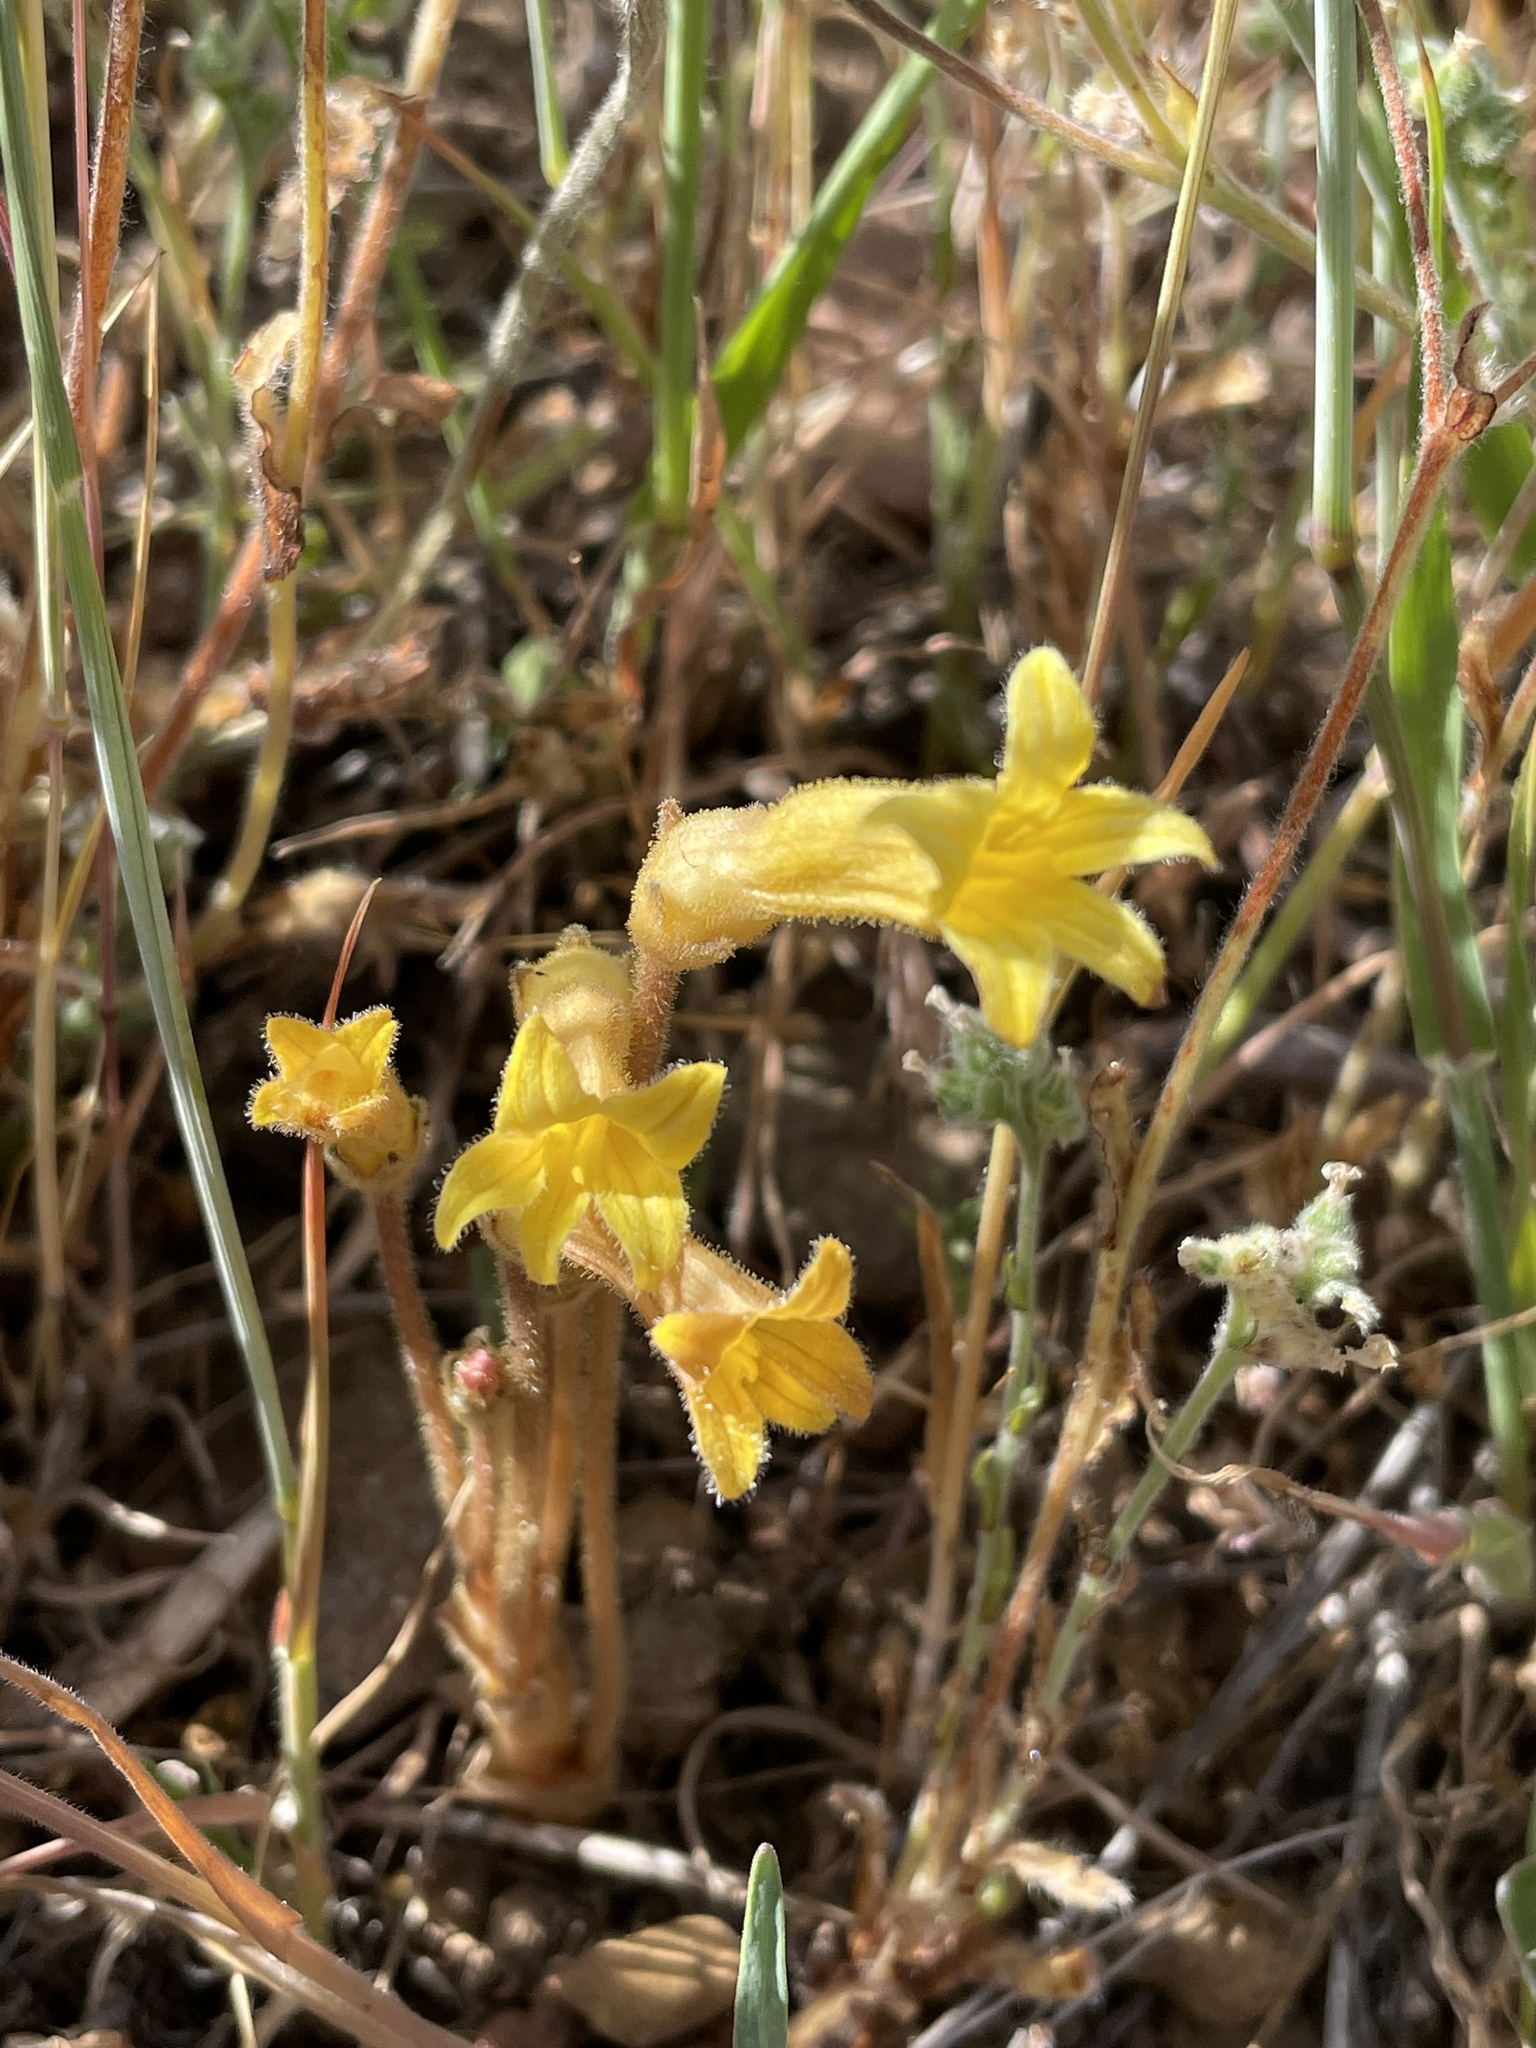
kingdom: Plantae
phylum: Tracheophyta
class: Magnoliopsida
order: Lamiales
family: Orobanchaceae
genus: Aphyllon
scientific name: Aphyllon franciscanum
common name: San francisco broomrape
